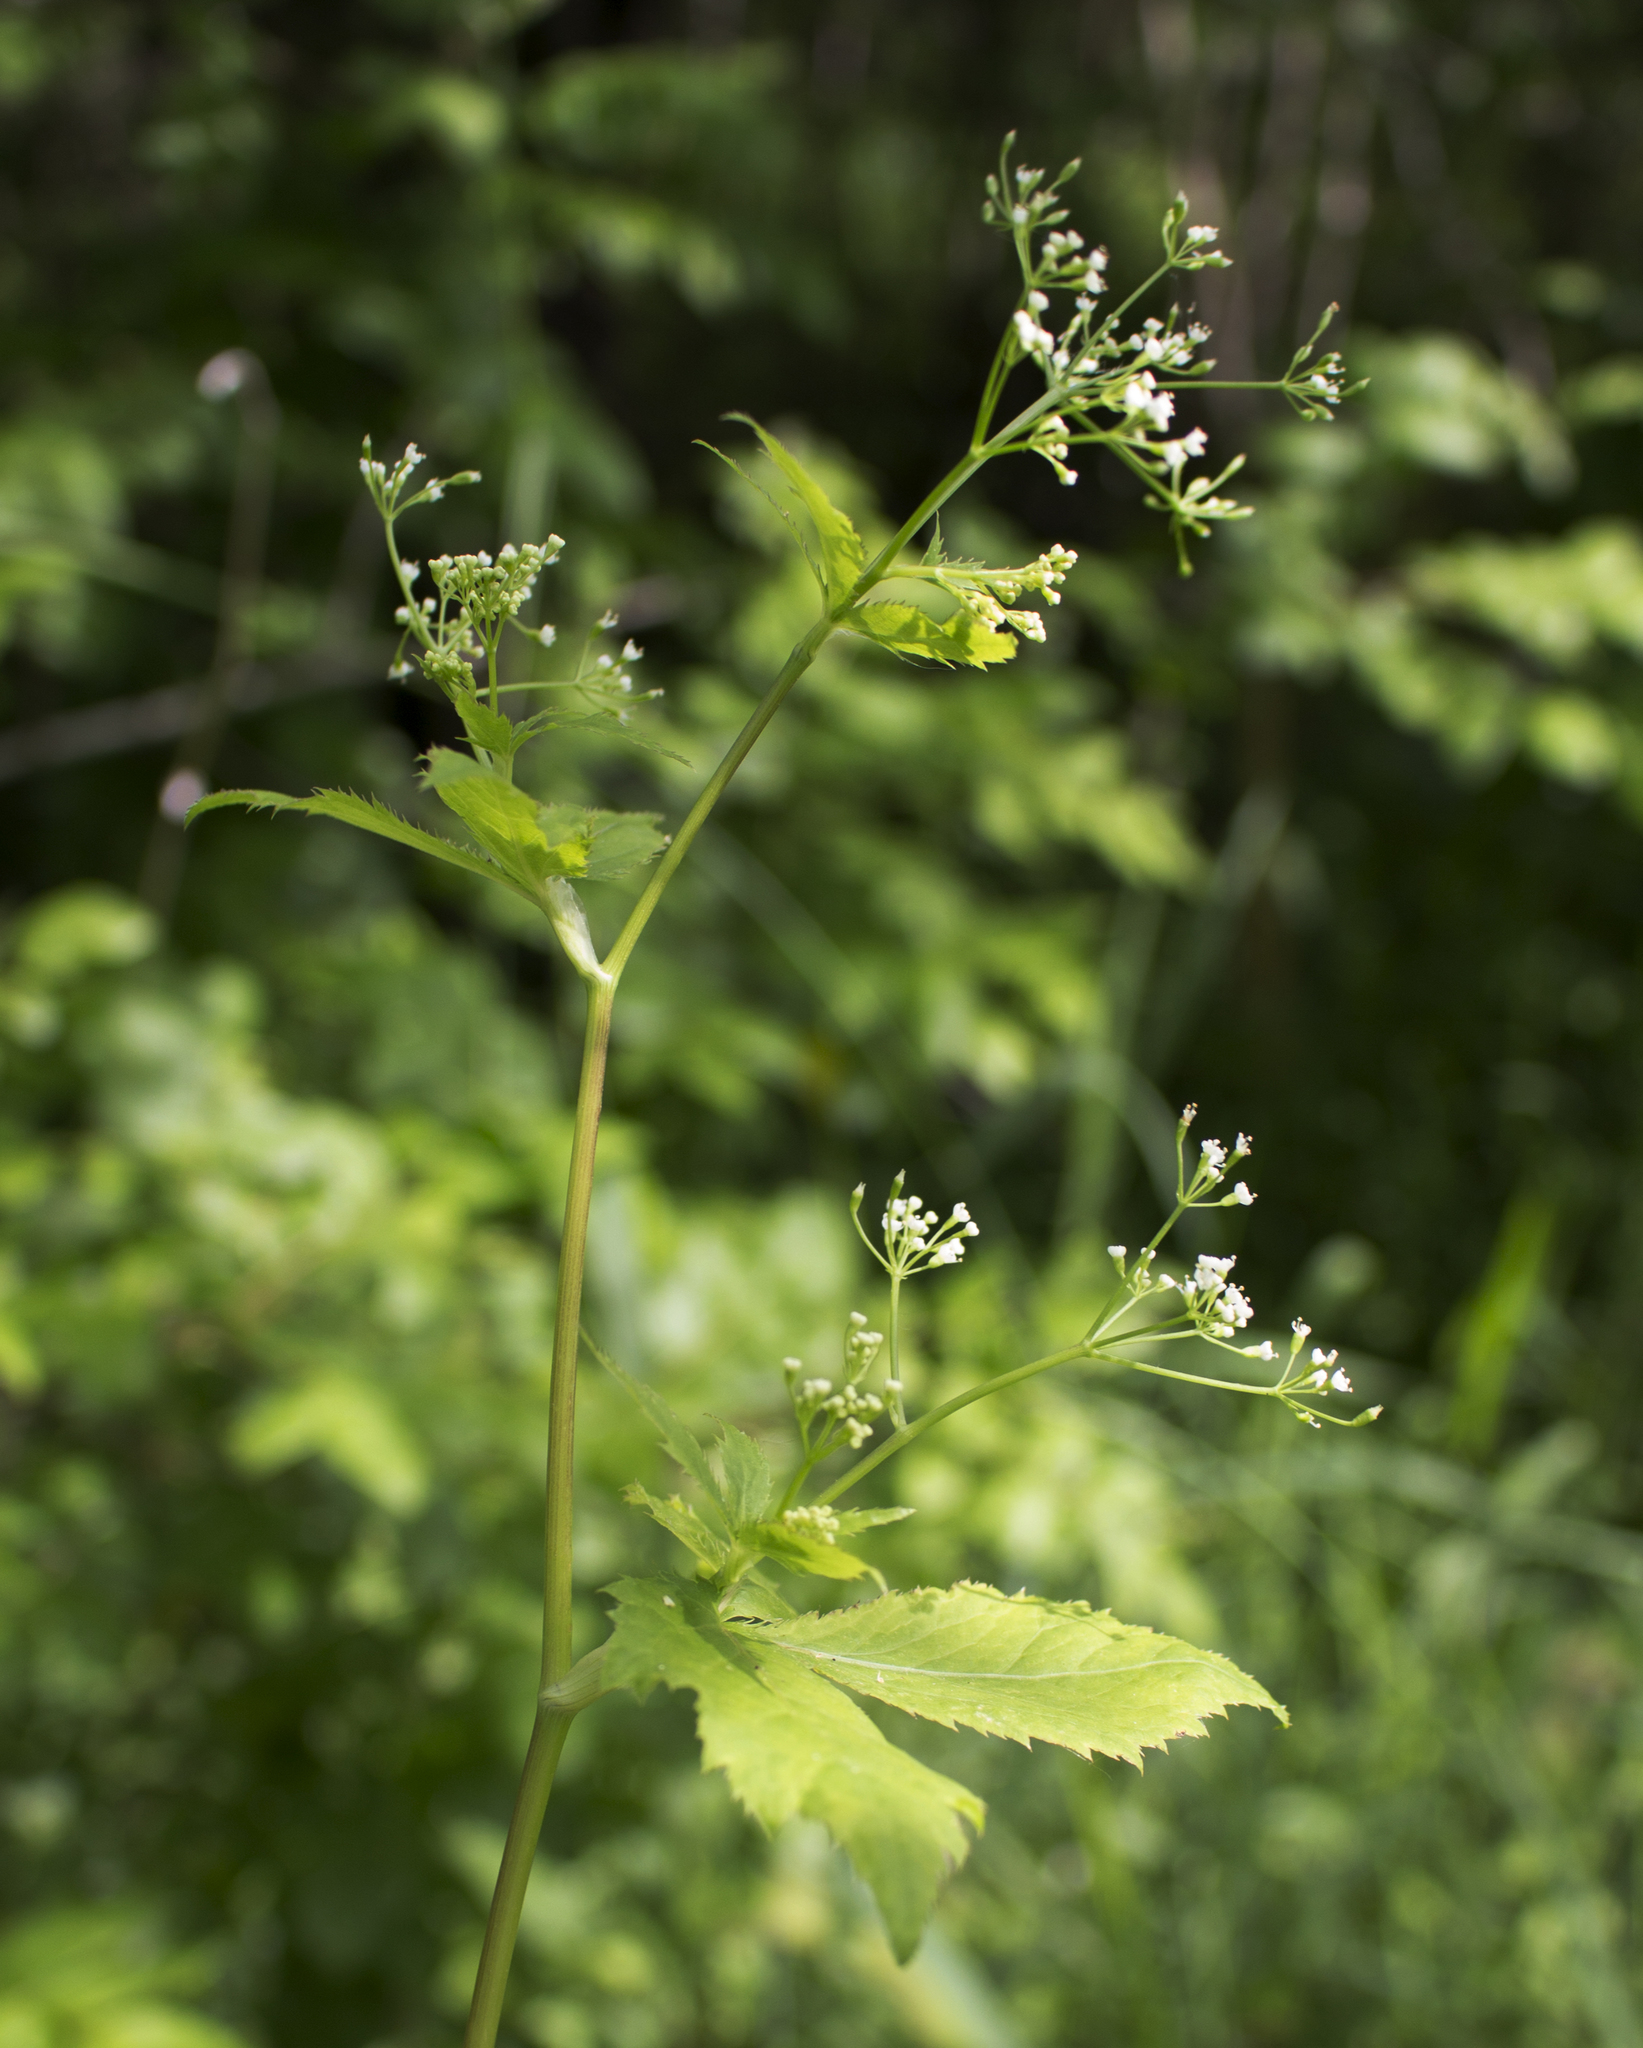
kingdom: Plantae
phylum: Tracheophyta
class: Magnoliopsida
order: Apiales
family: Apiaceae
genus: Cryptotaenia
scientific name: Cryptotaenia canadensis
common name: Honewort
